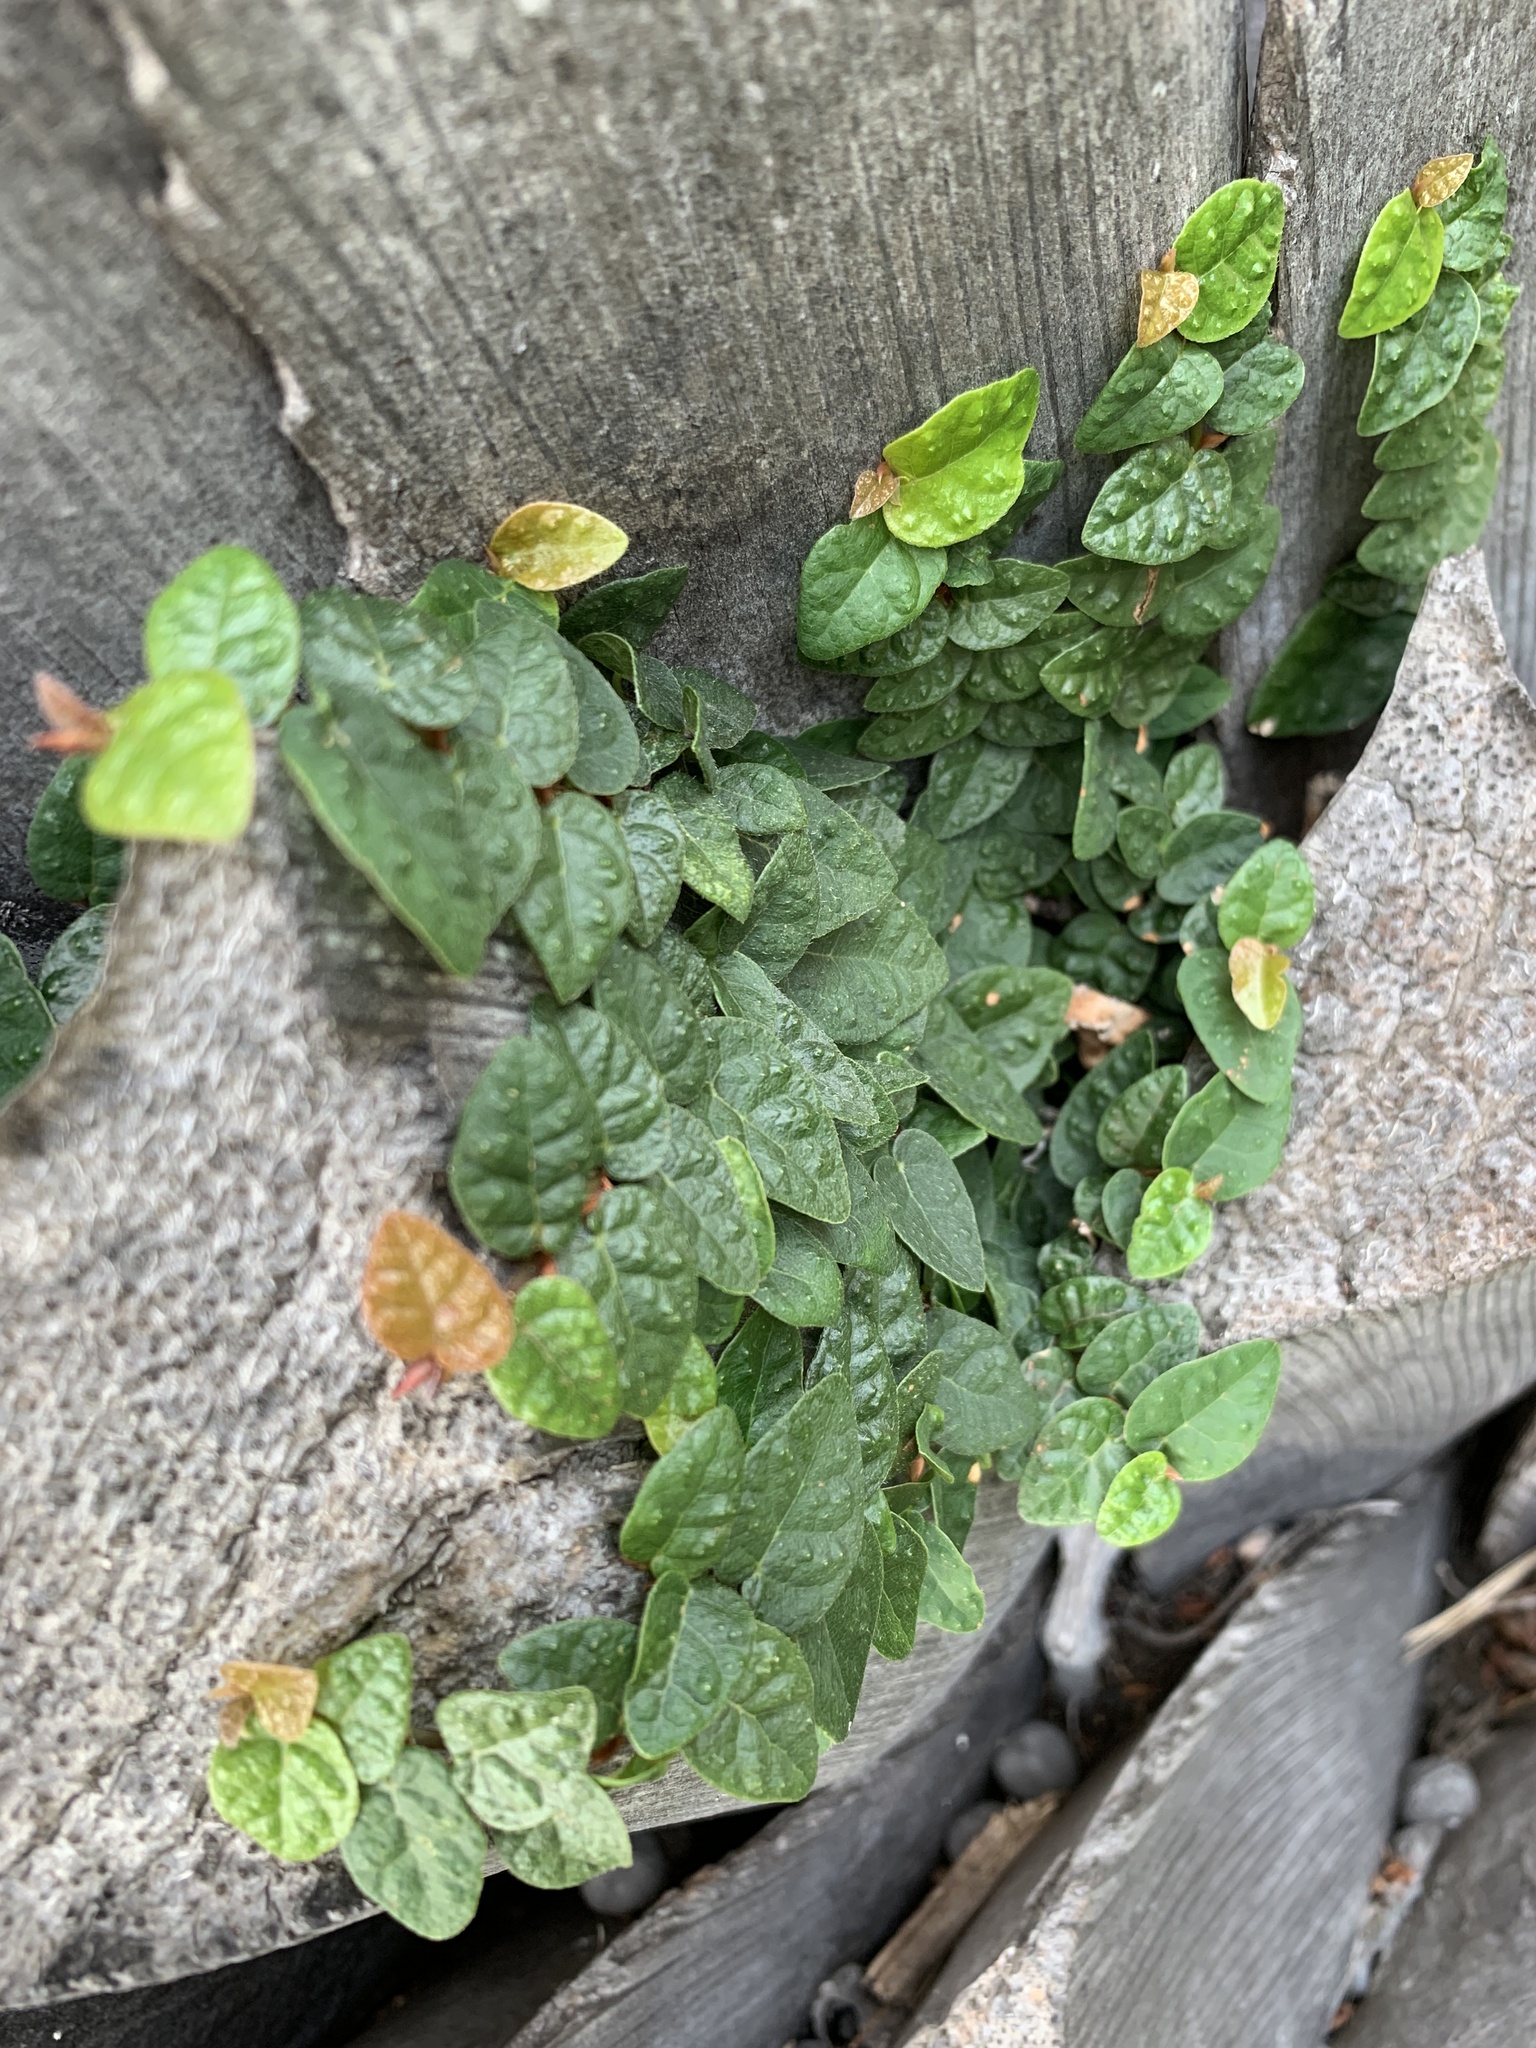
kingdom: Plantae
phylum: Tracheophyta
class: Magnoliopsida
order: Rosales
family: Moraceae
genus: Ficus
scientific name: Ficus pumila
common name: Climbingfig
